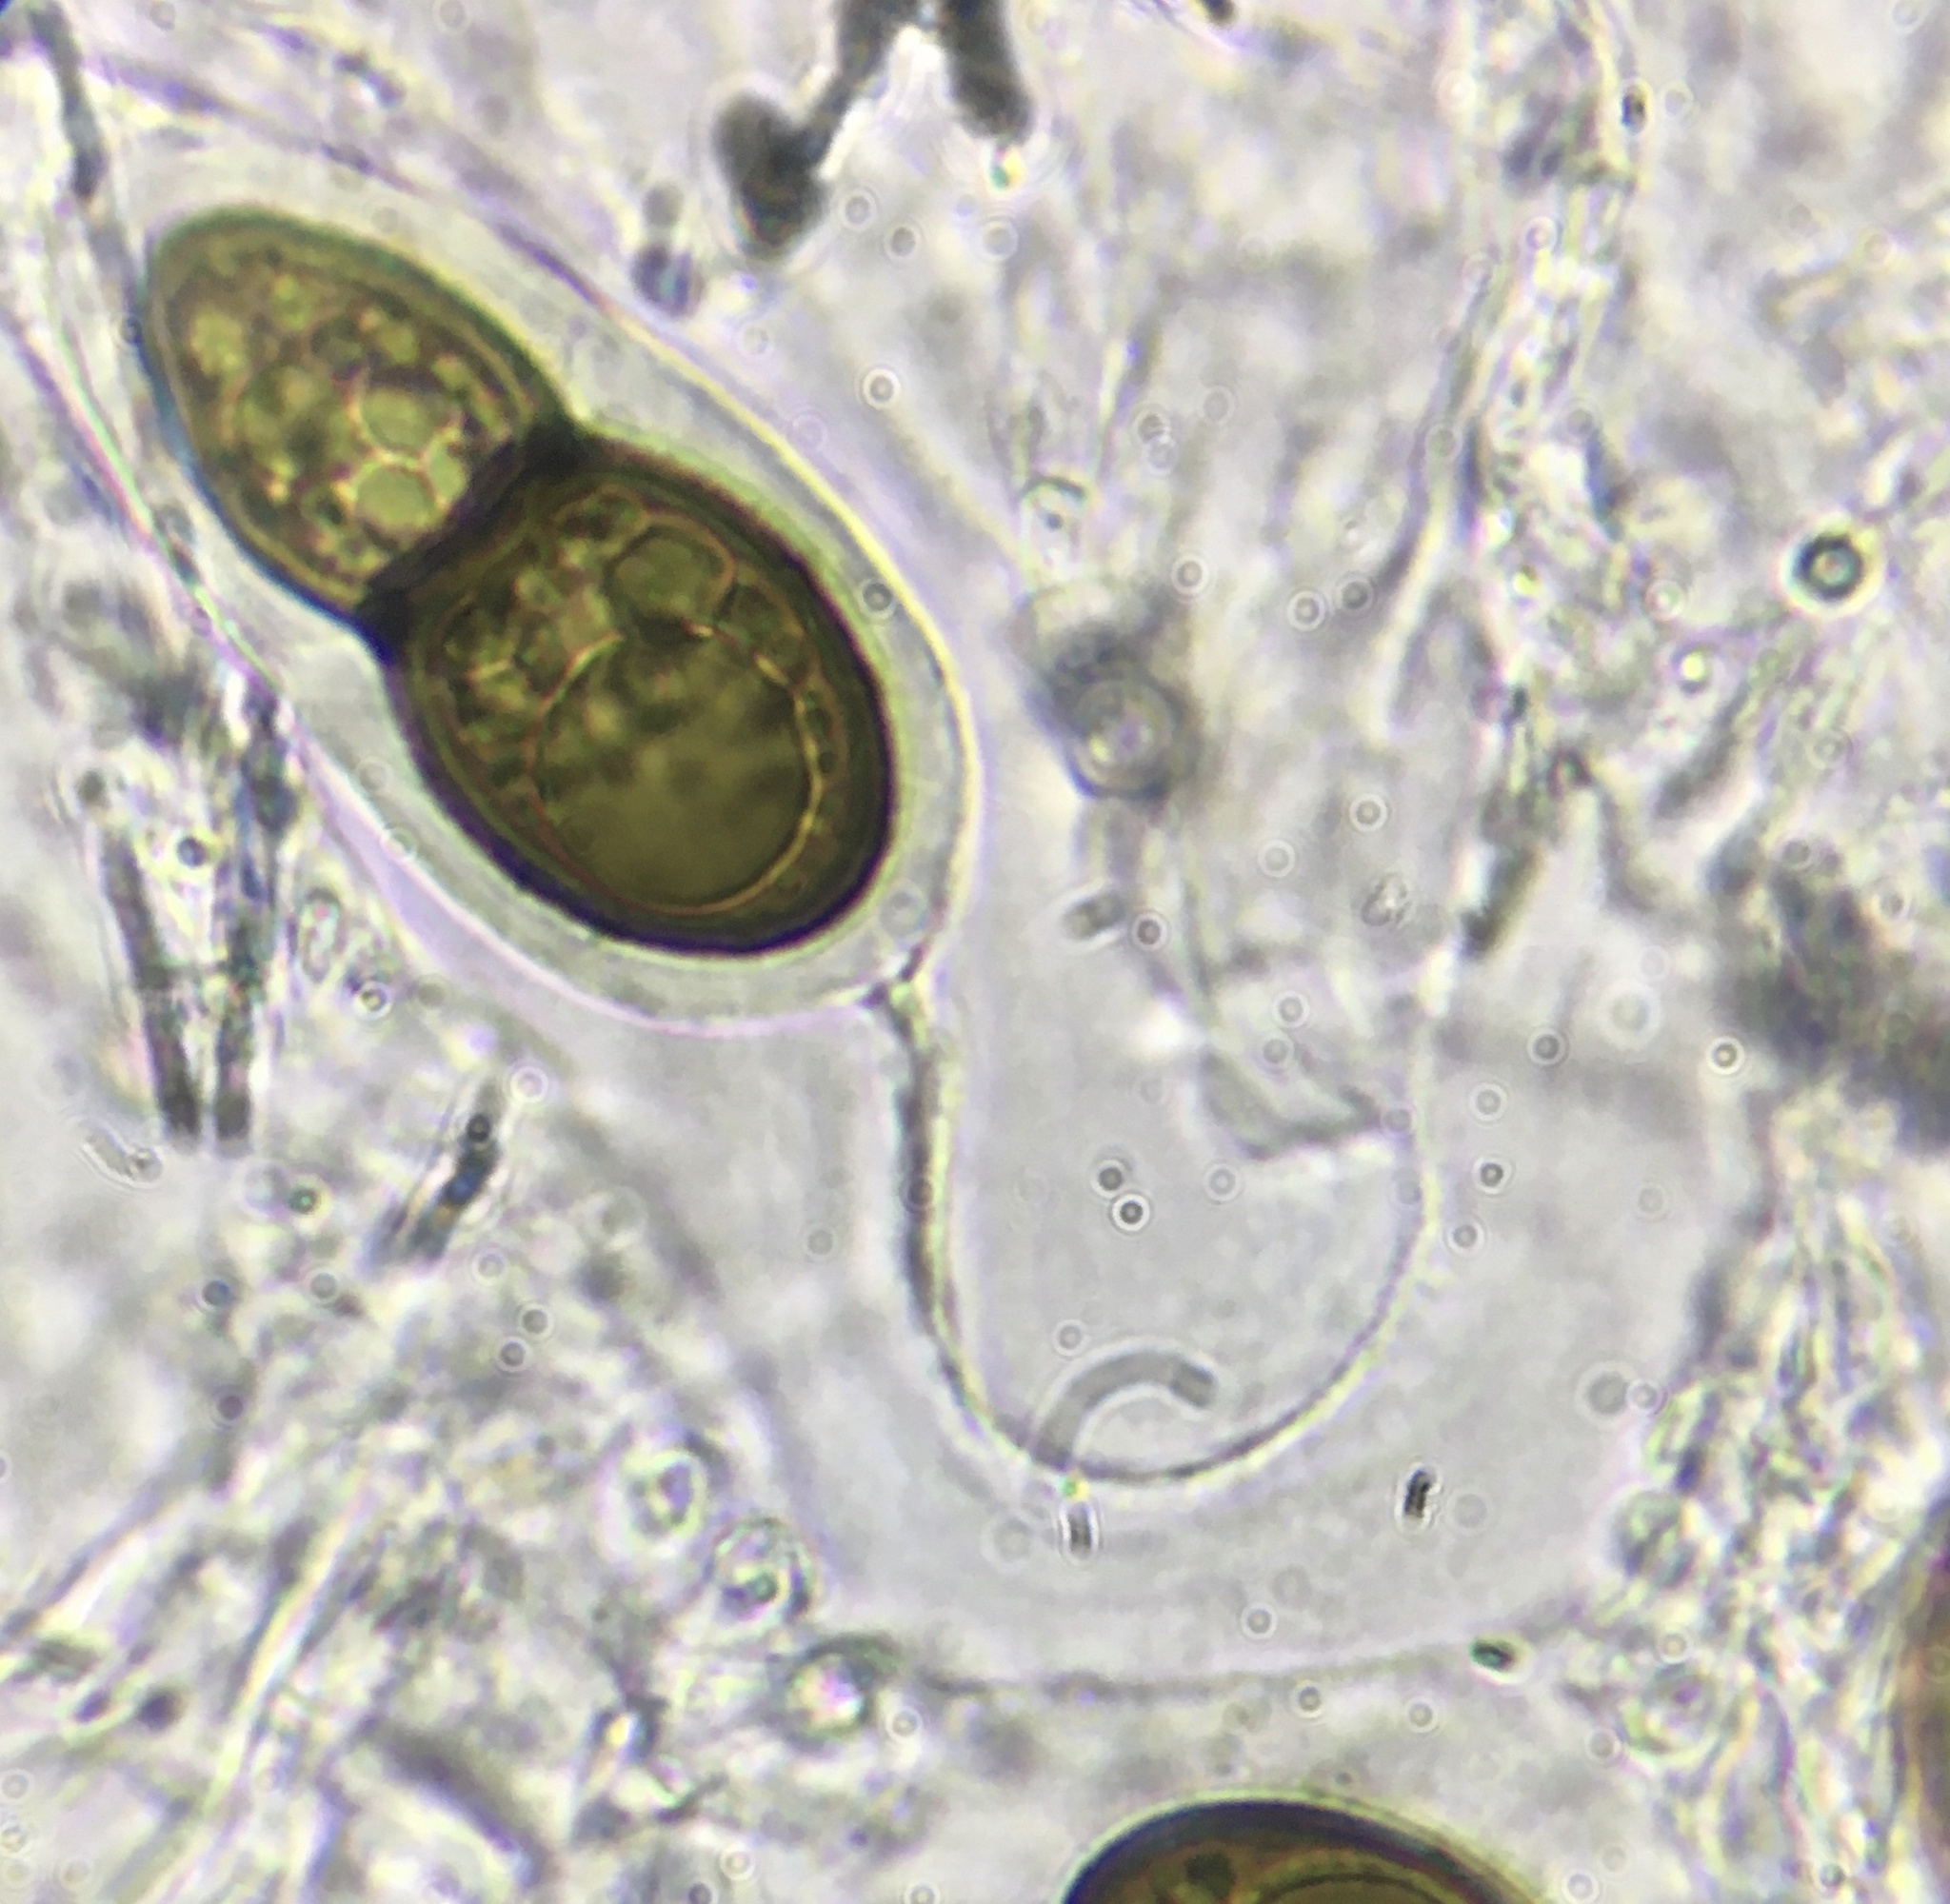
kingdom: Fungi
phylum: Ascomycota
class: Eurotiomycetes
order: Pyrenulales
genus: Splanchospora
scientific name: Splanchospora ampullacea
